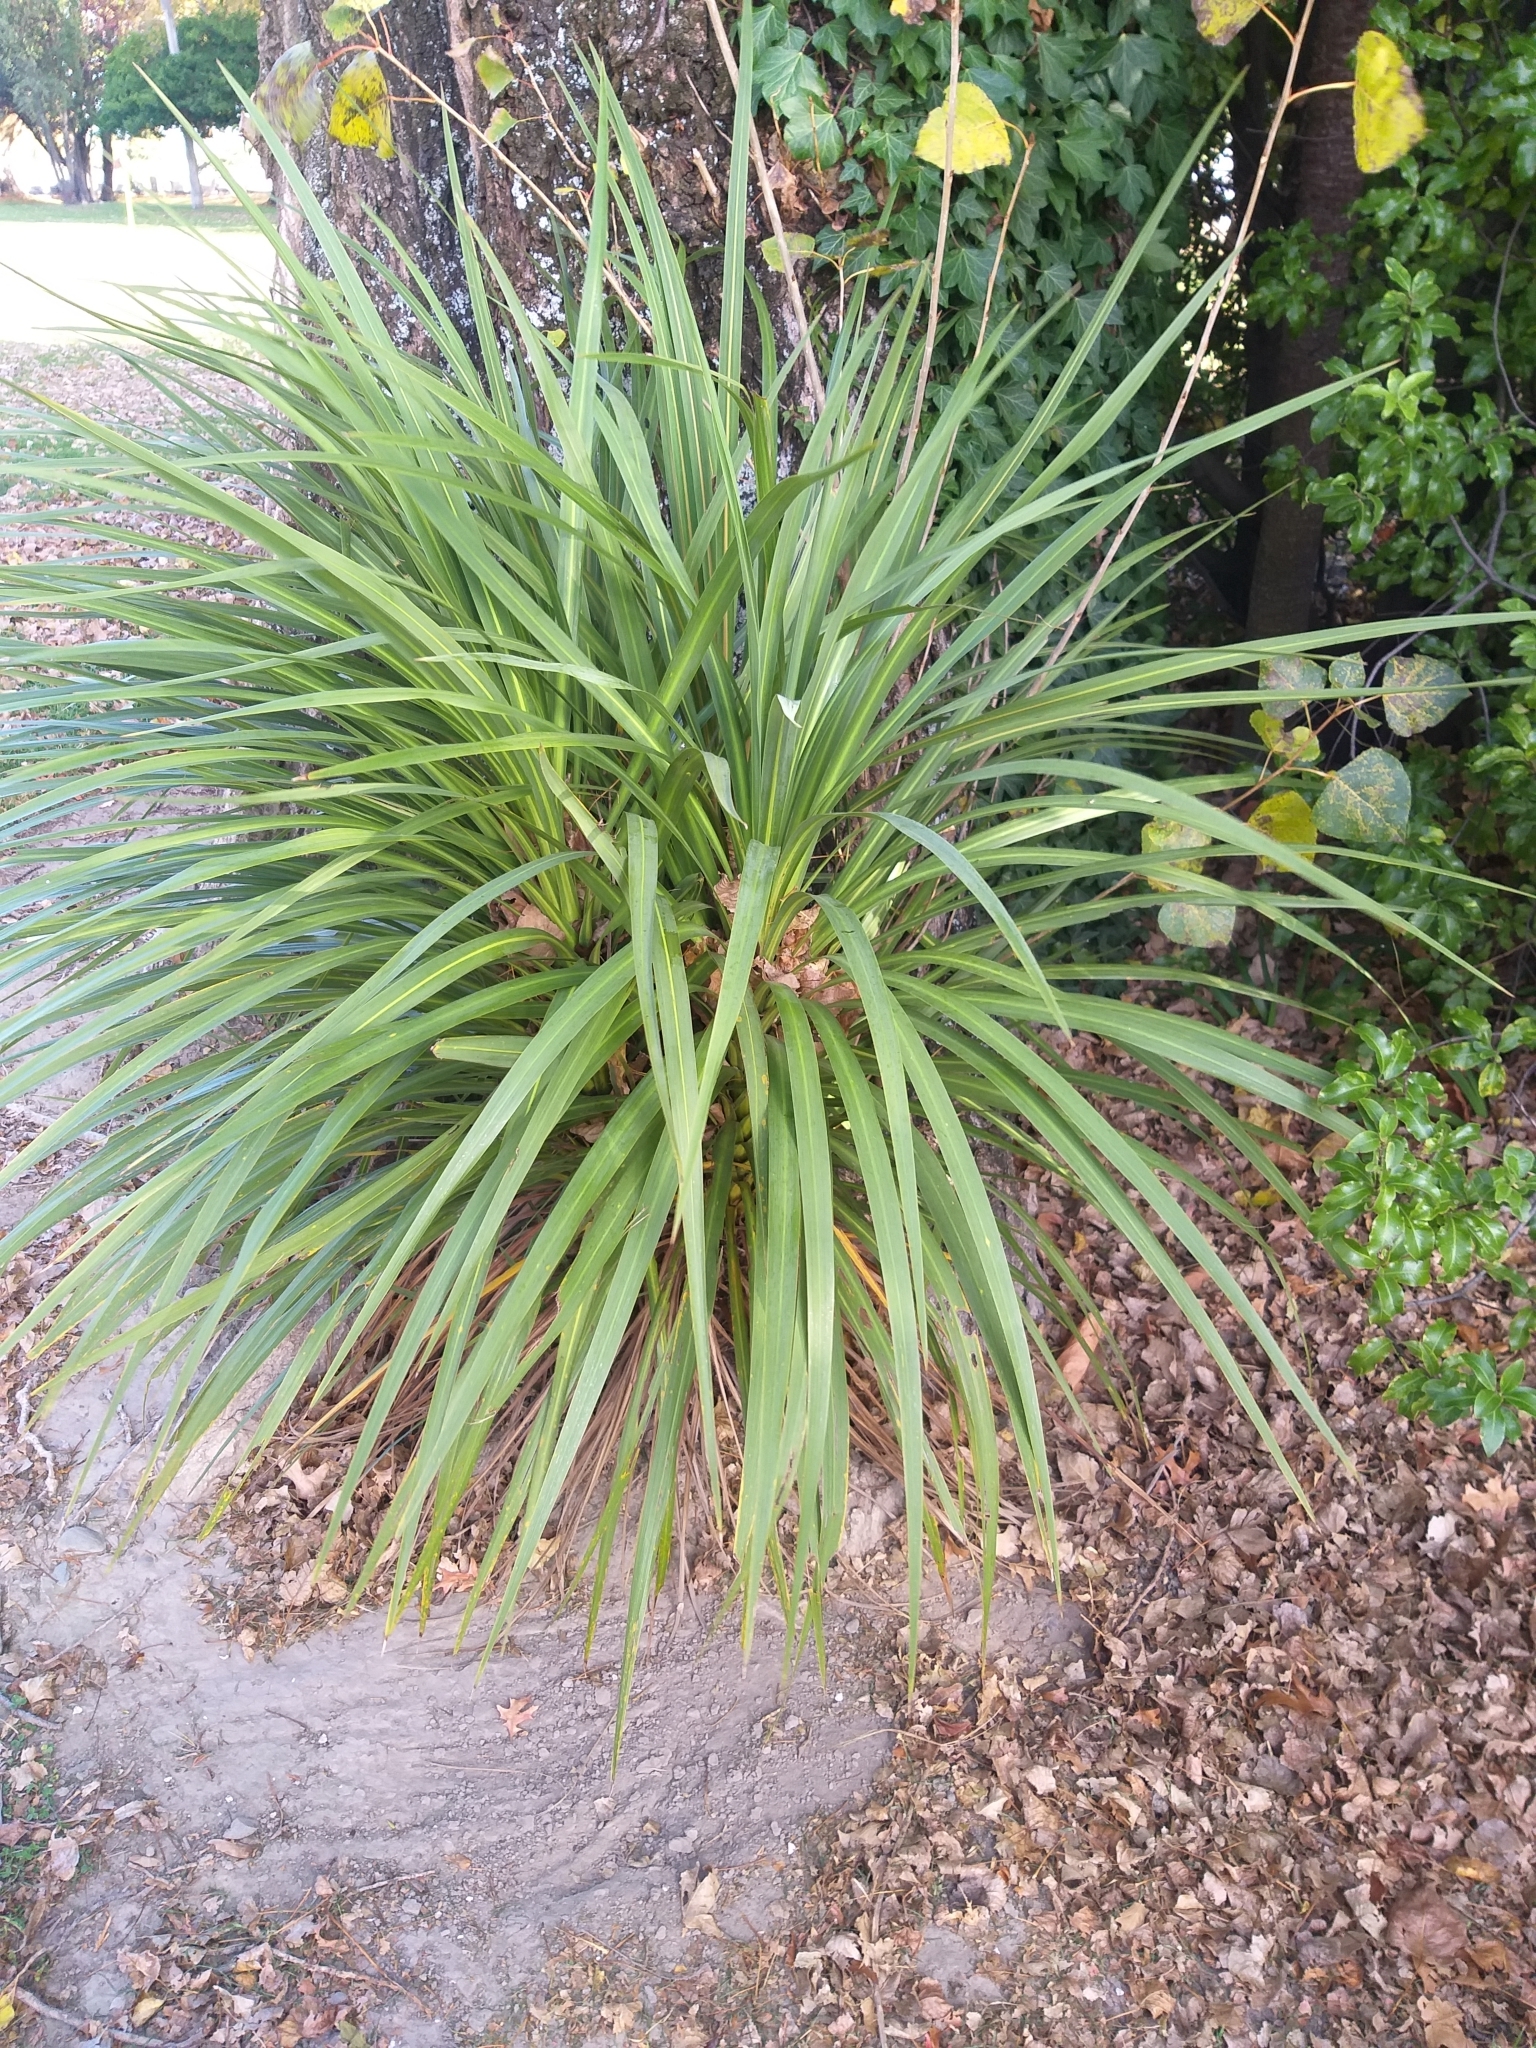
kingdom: Plantae
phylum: Tracheophyta
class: Liliopsida
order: Asparagales
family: Asparagaceae
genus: Cordyline
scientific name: Cordyline australis
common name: Cabbage-palm
